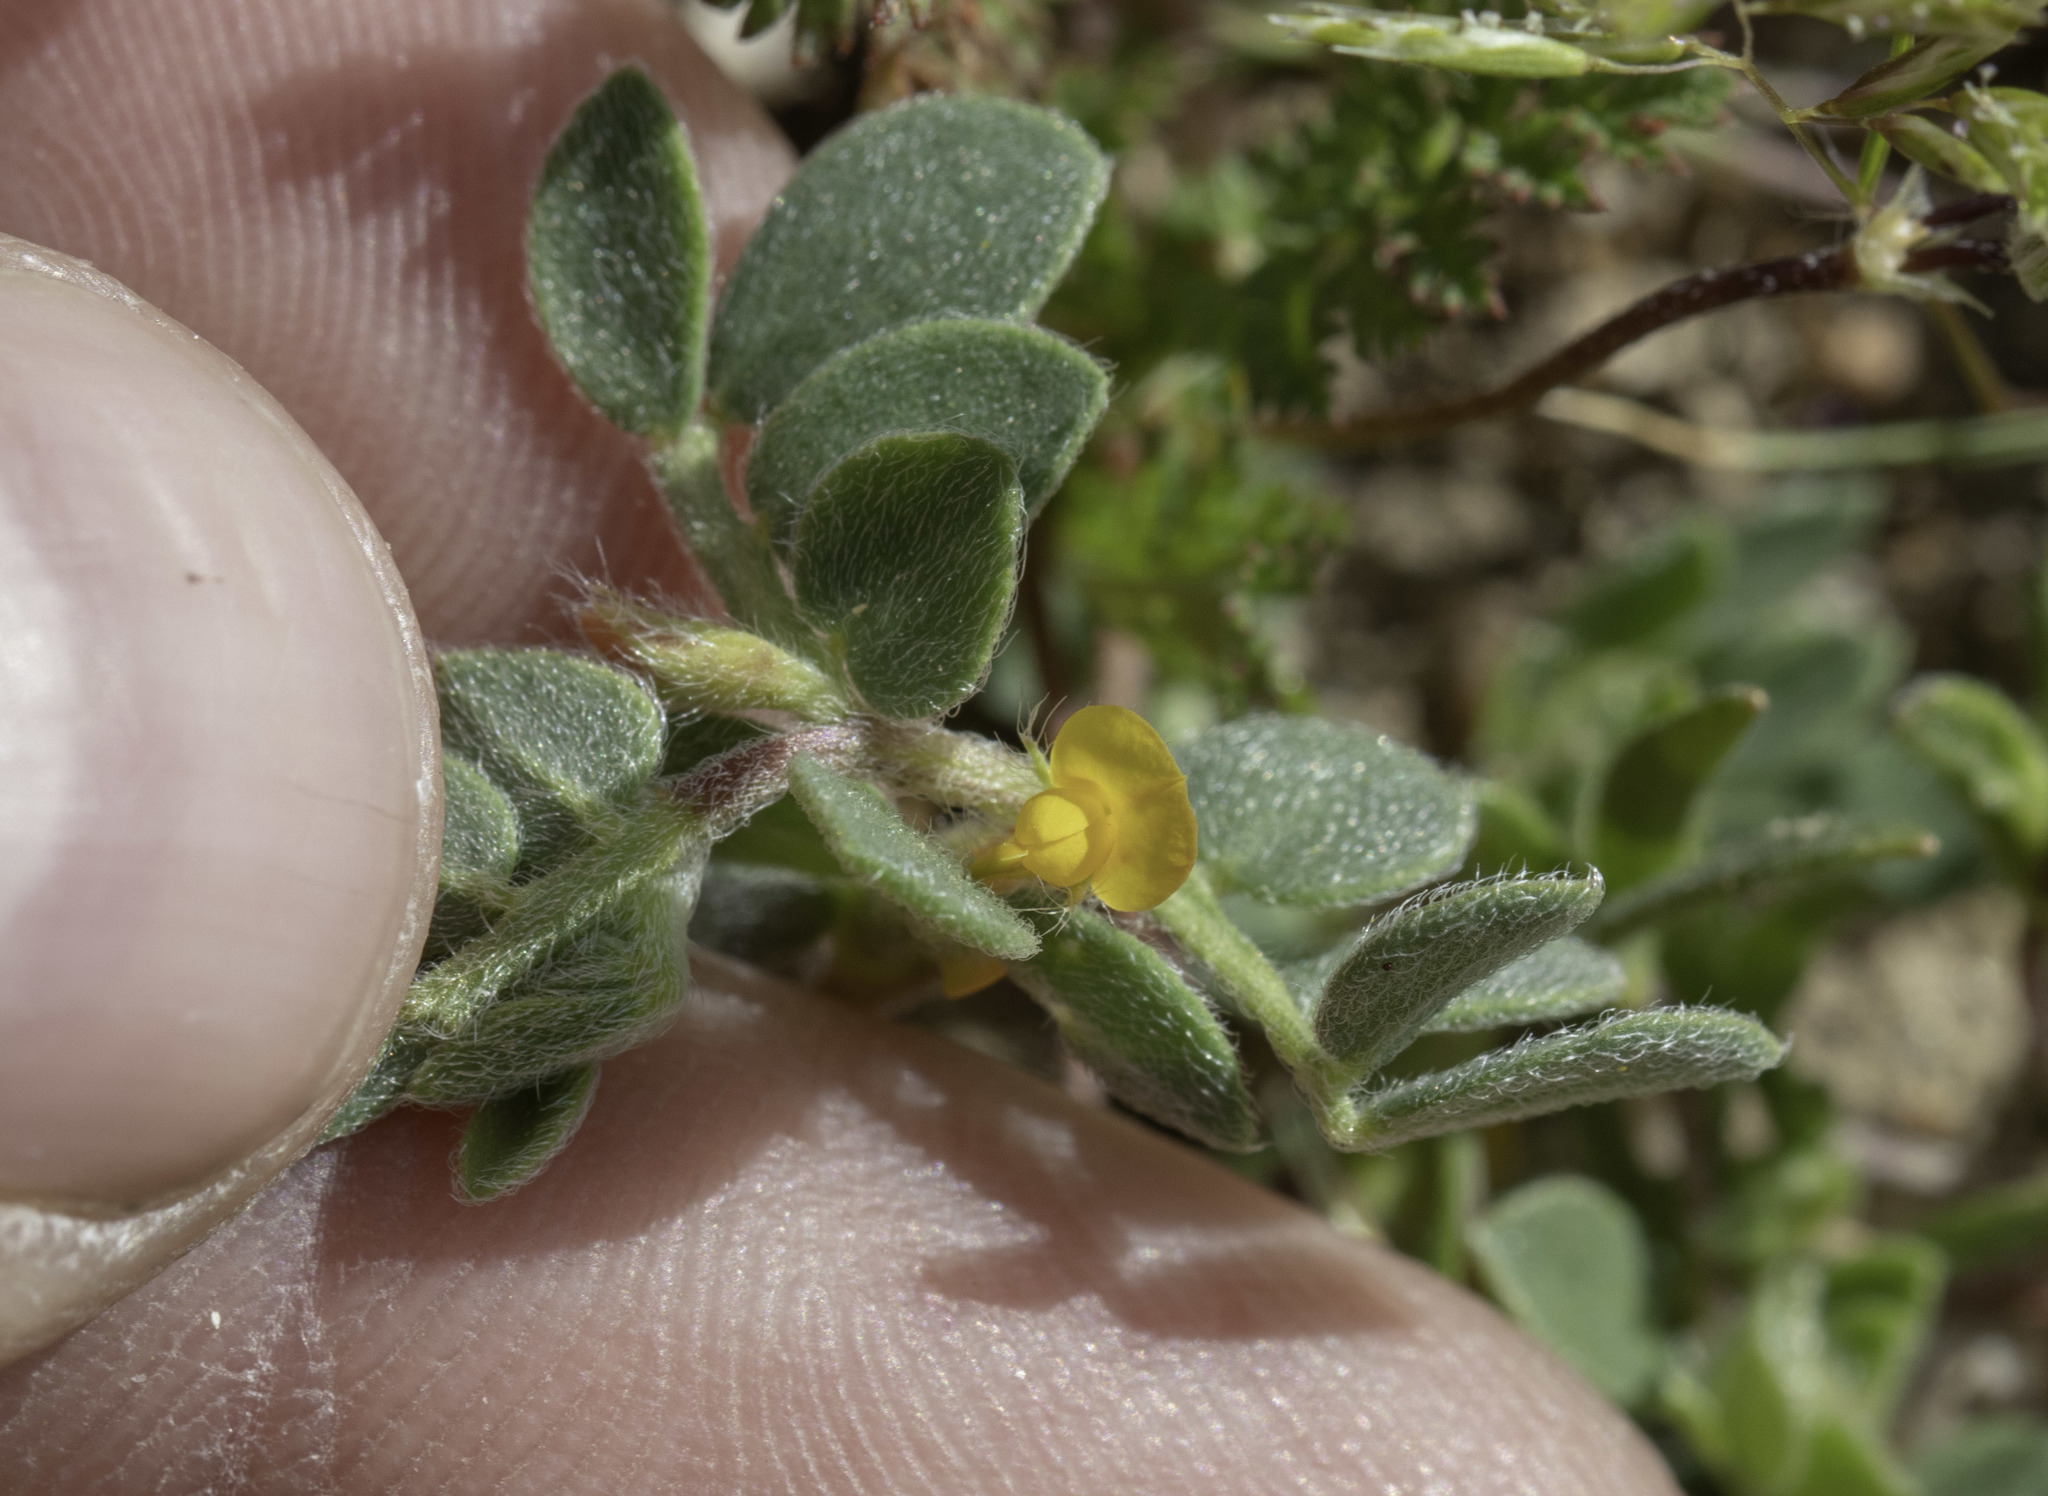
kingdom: Plantae
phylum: Tracheophyta
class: Magnoliopsida
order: Fabales
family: Fabaceae
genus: Acmispon
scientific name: Acmispon wrangelianus
